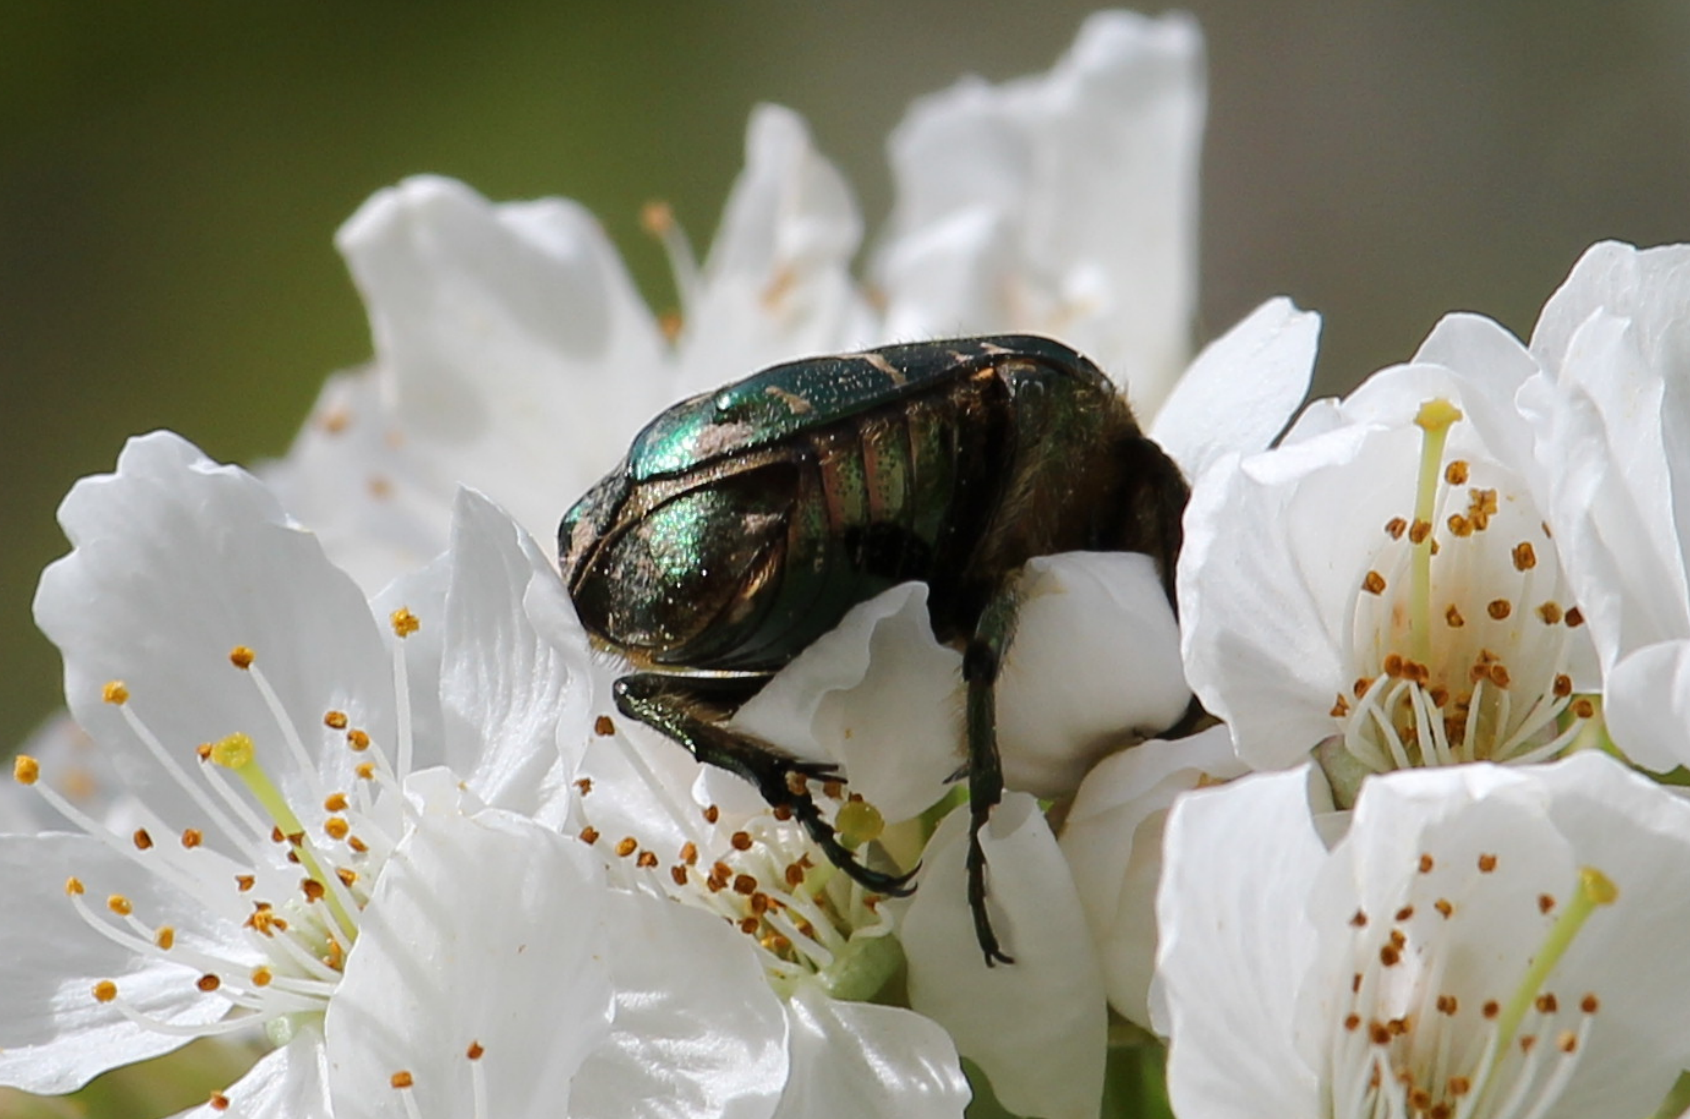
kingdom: Animalia
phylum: Arthropoda
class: Insecta
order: Coleoptera
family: Scarabaeidae
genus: Cetonia
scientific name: Cetonia aurata
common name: Rose chafer
